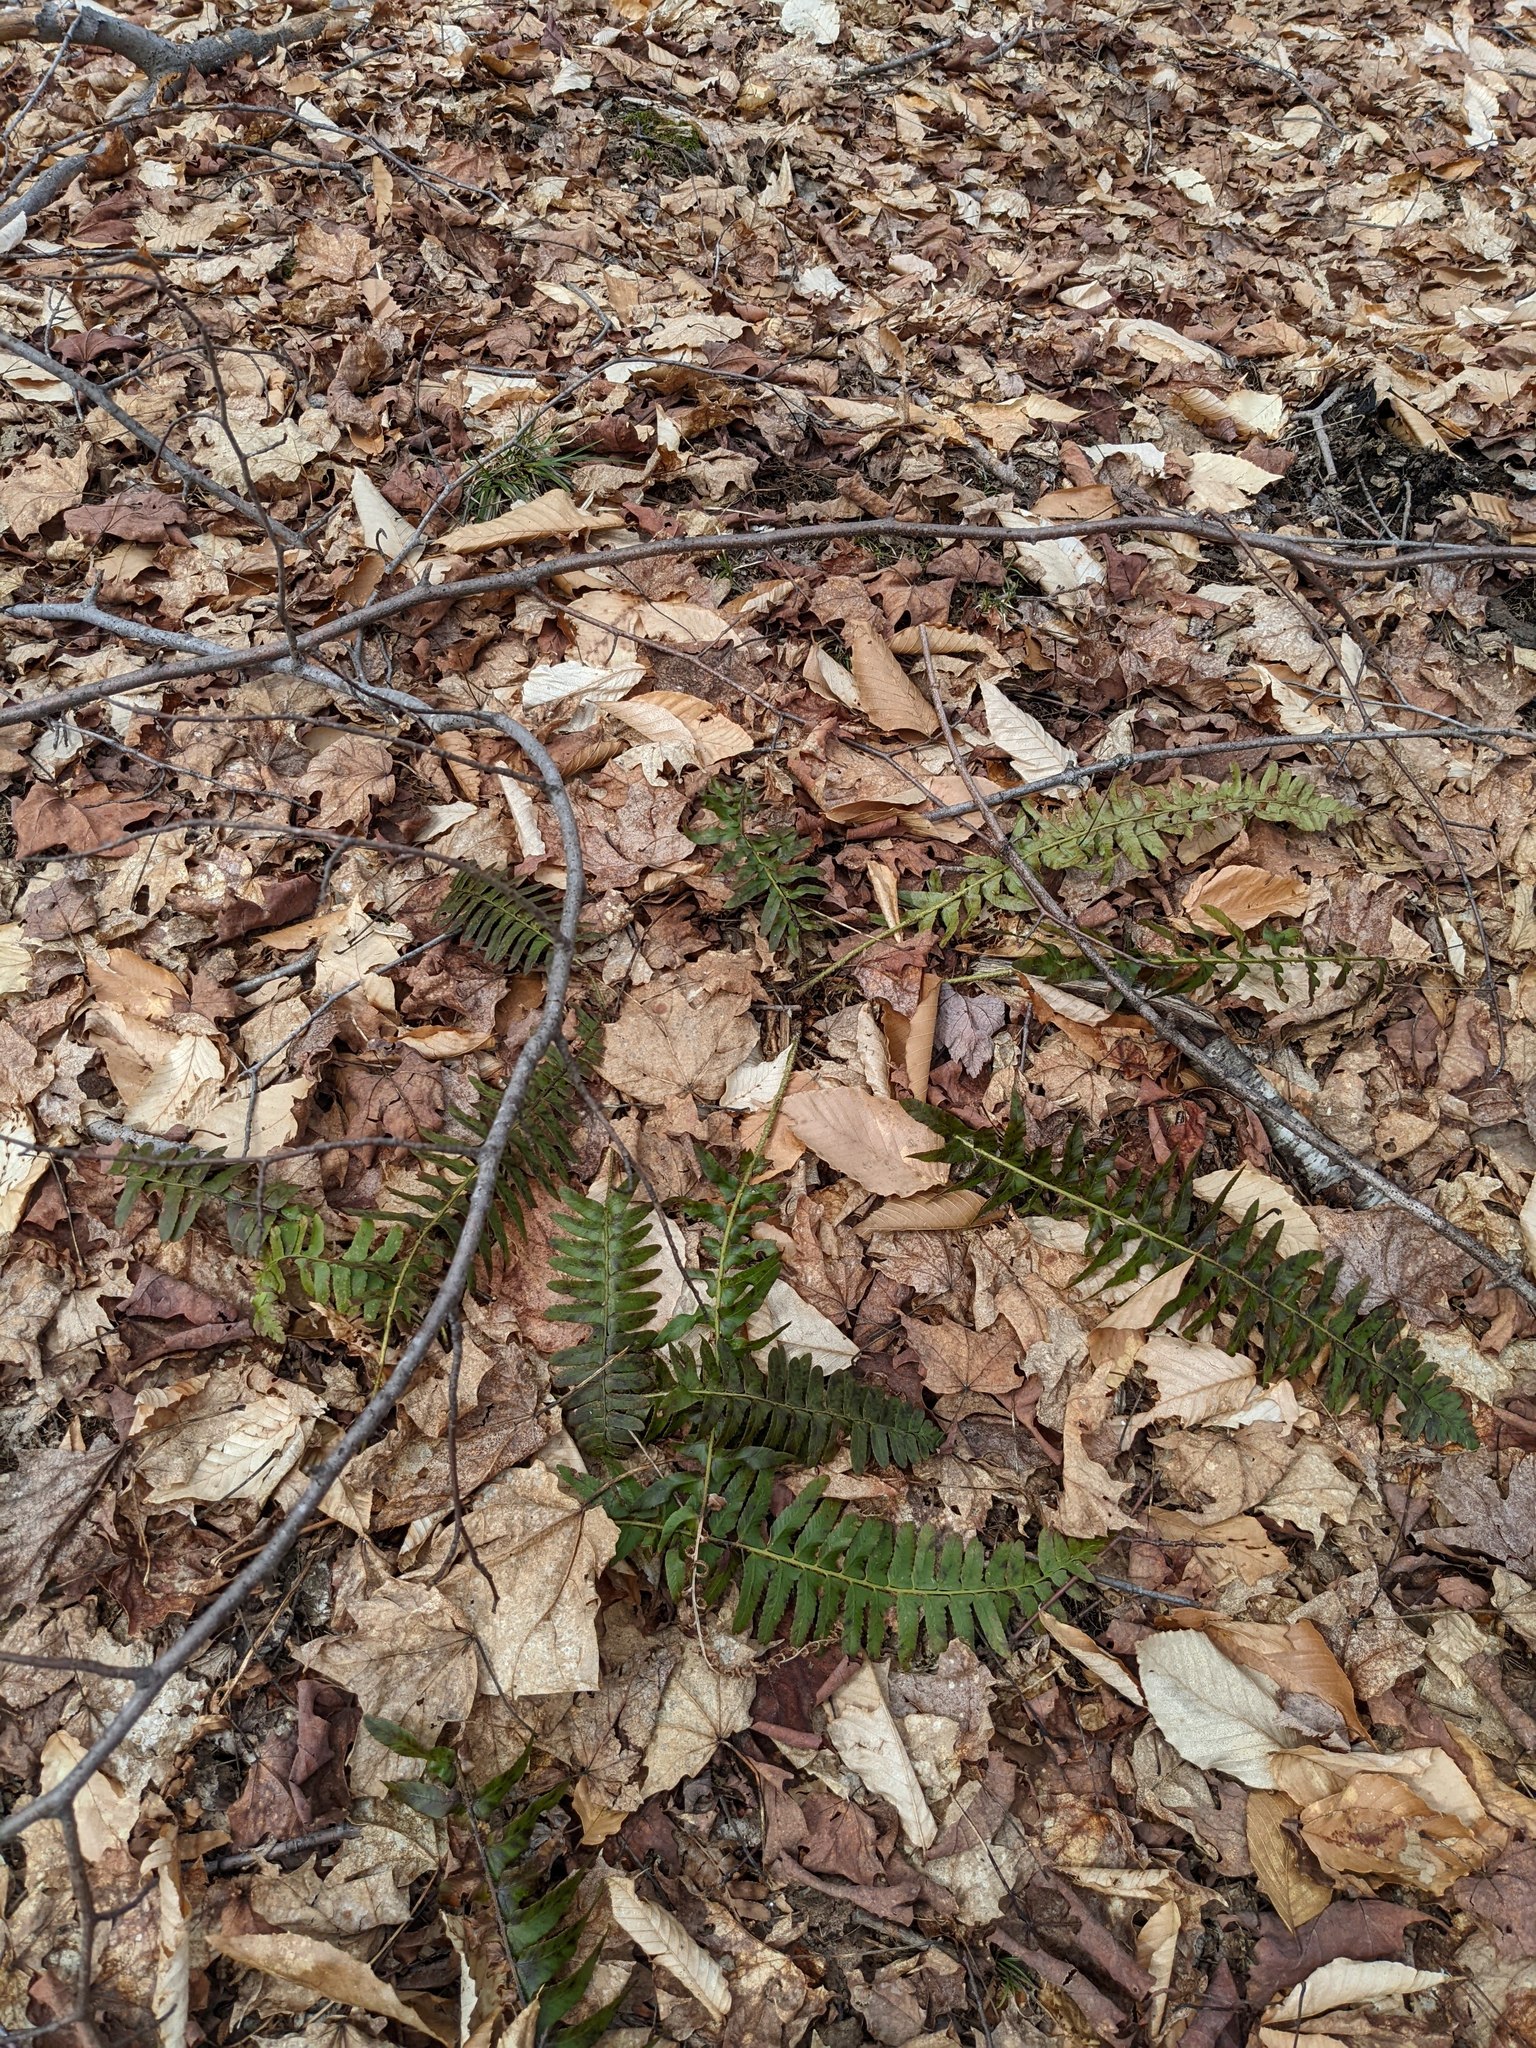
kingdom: Plantae
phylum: Tracheophyta
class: Polypodiopsida
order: Polypodiales
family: Dryopteridaceae
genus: Polystichum
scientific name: Polystichum acrostichoides
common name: Christmas fern
